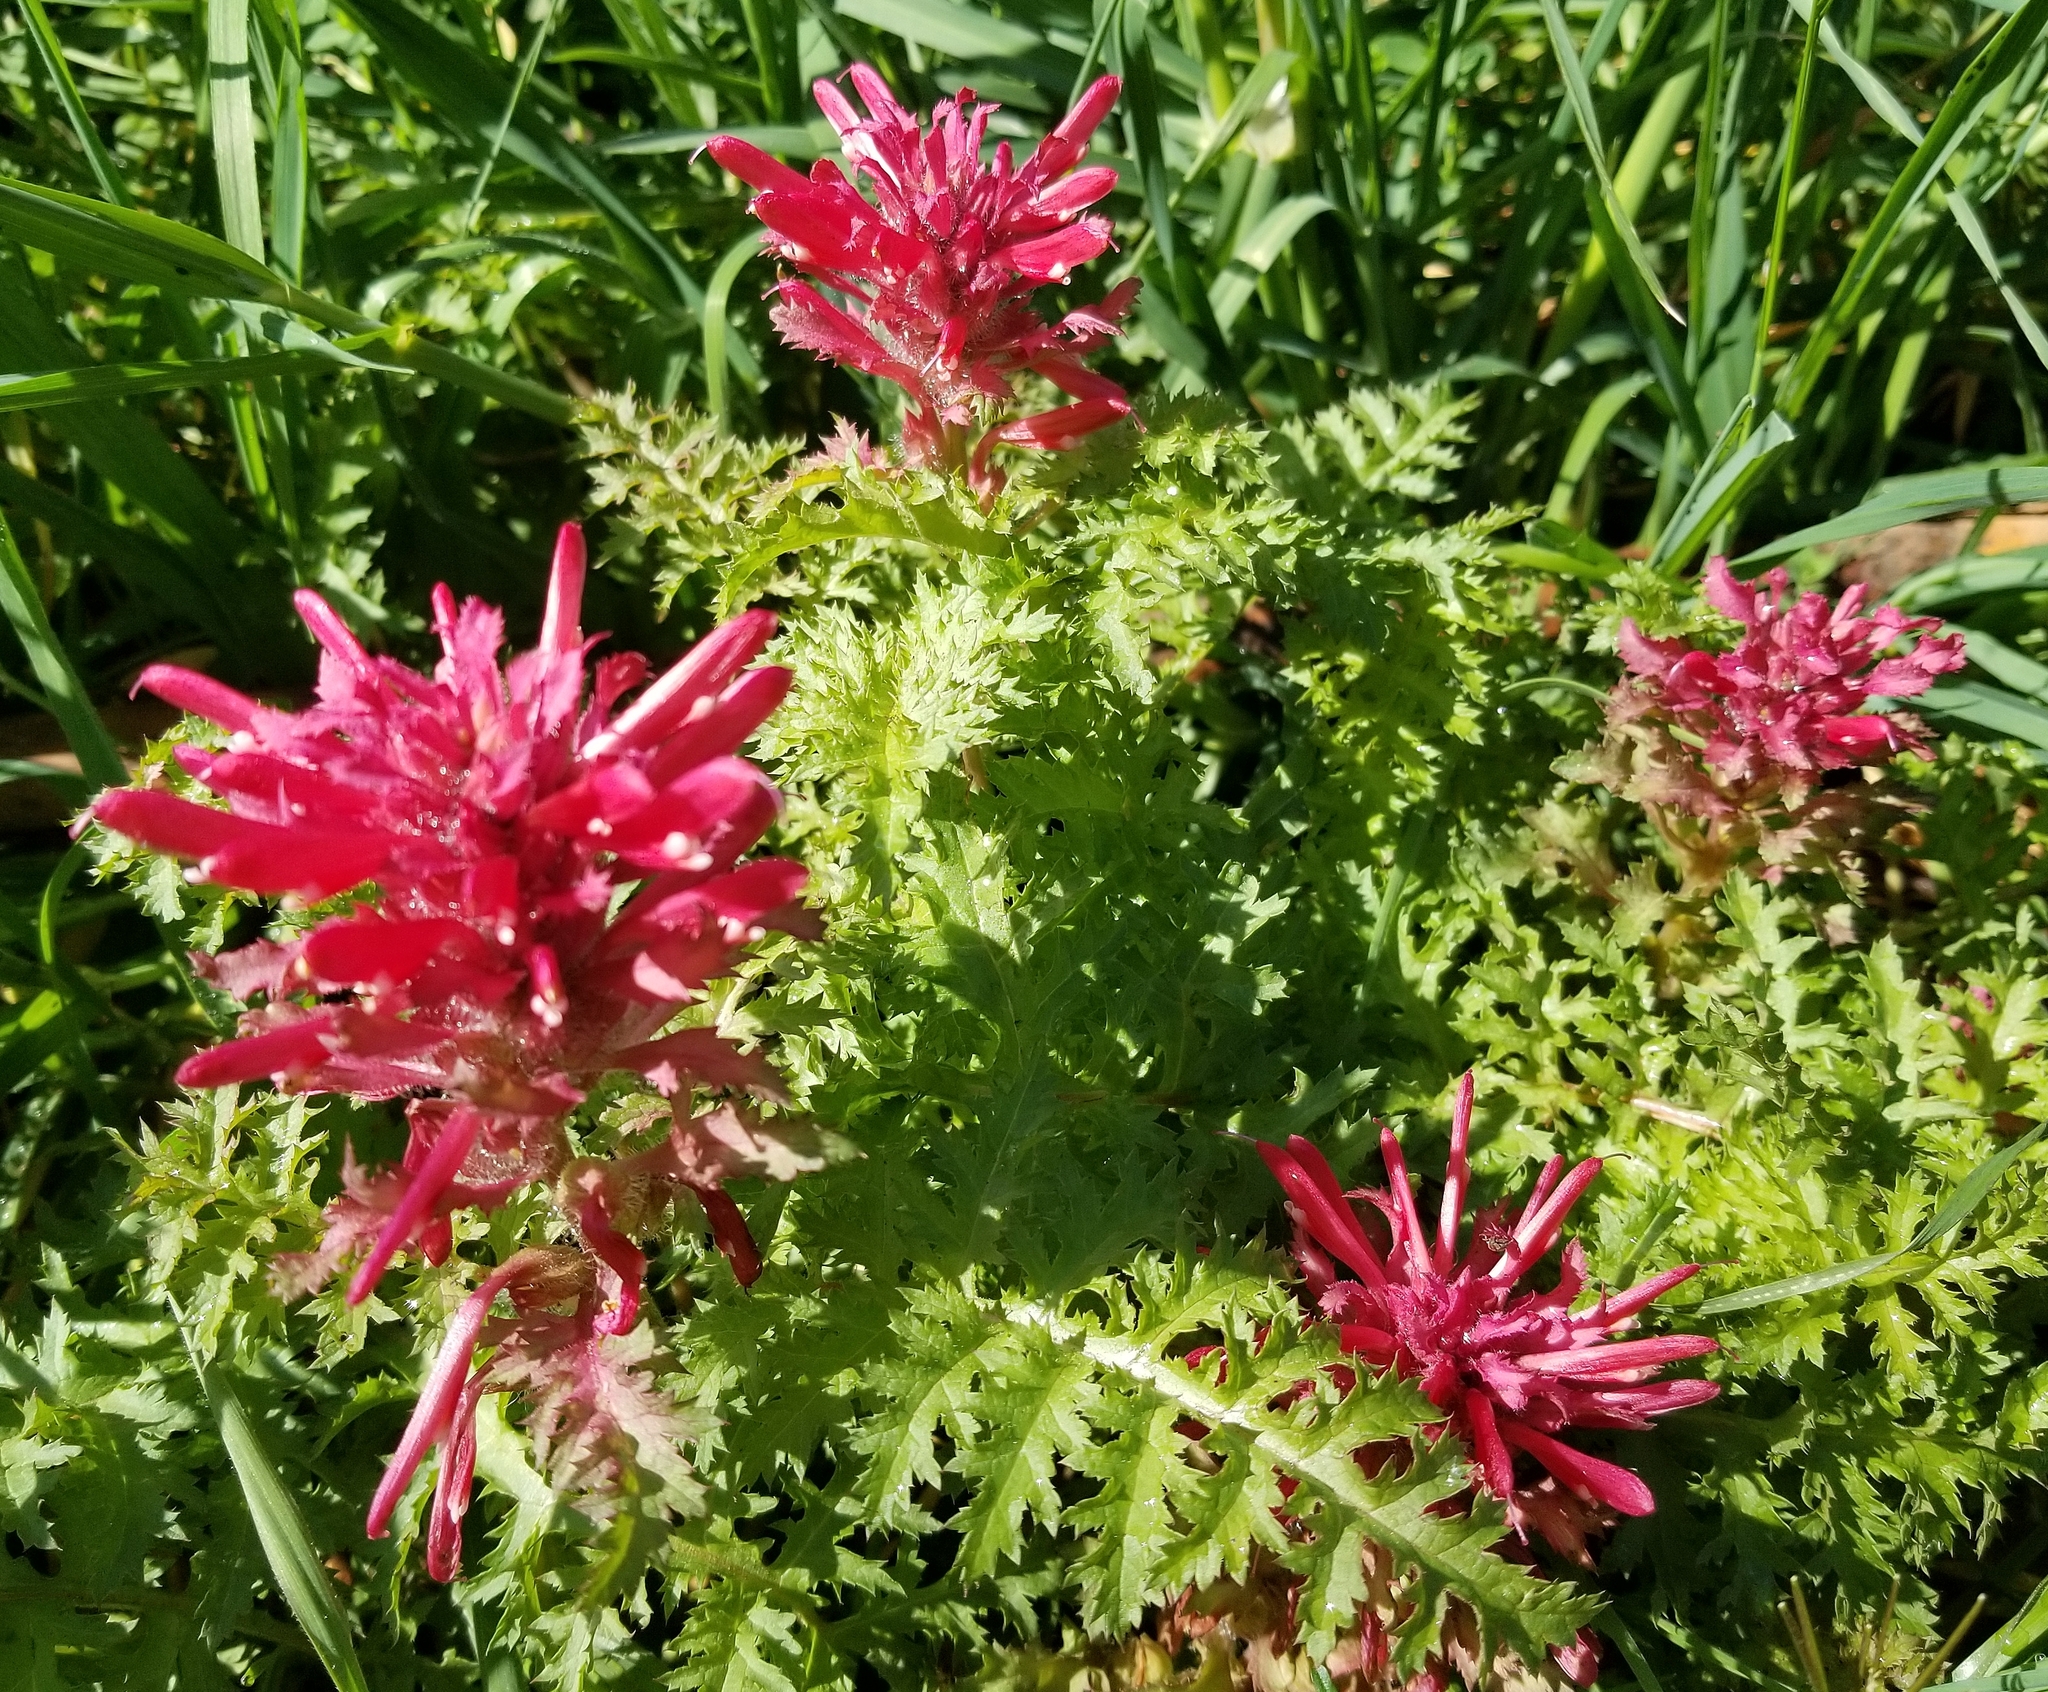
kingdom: Plantae
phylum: Tracheophyta
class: Magnoliopsida
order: Lamiales
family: Orobanchaceae
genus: Pedicularis
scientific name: Pedicularis densiflora
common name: Indian warrior
